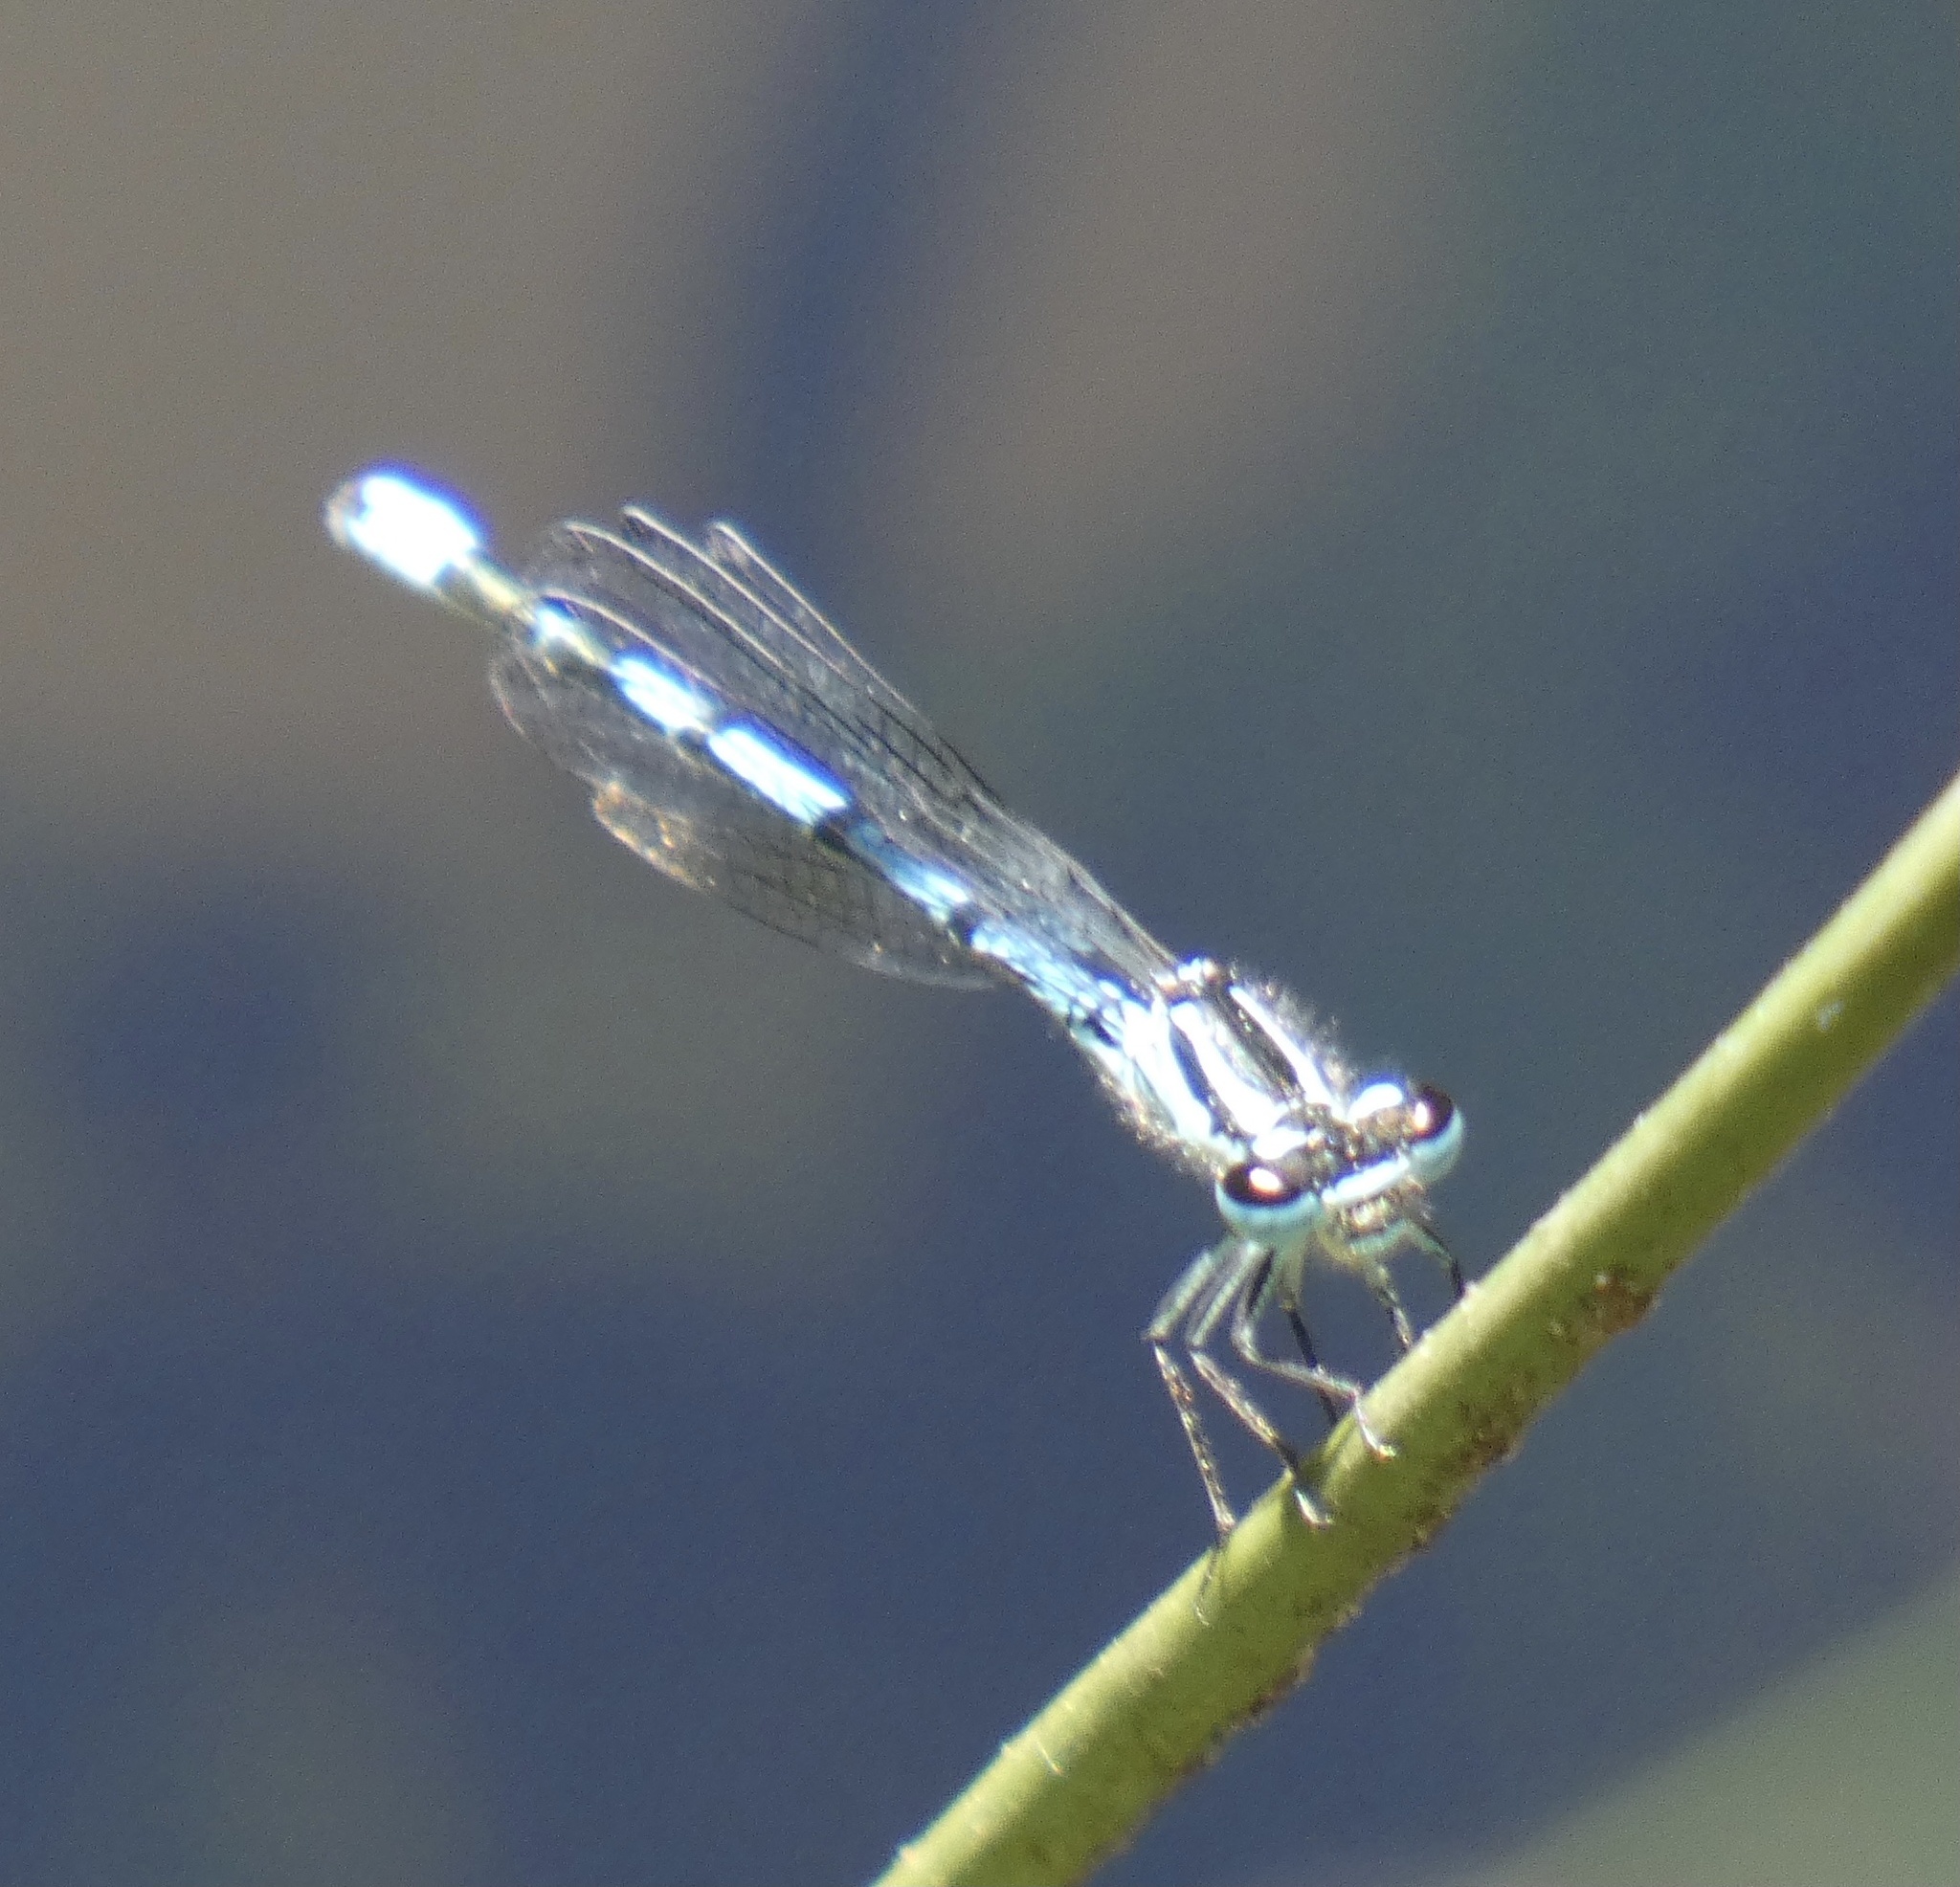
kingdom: Animalia
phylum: Arthropoda
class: Insecta
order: Odonata
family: Coenagrionidae
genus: Coenagrion
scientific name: Coenagrion puella
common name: Azure damselfly
